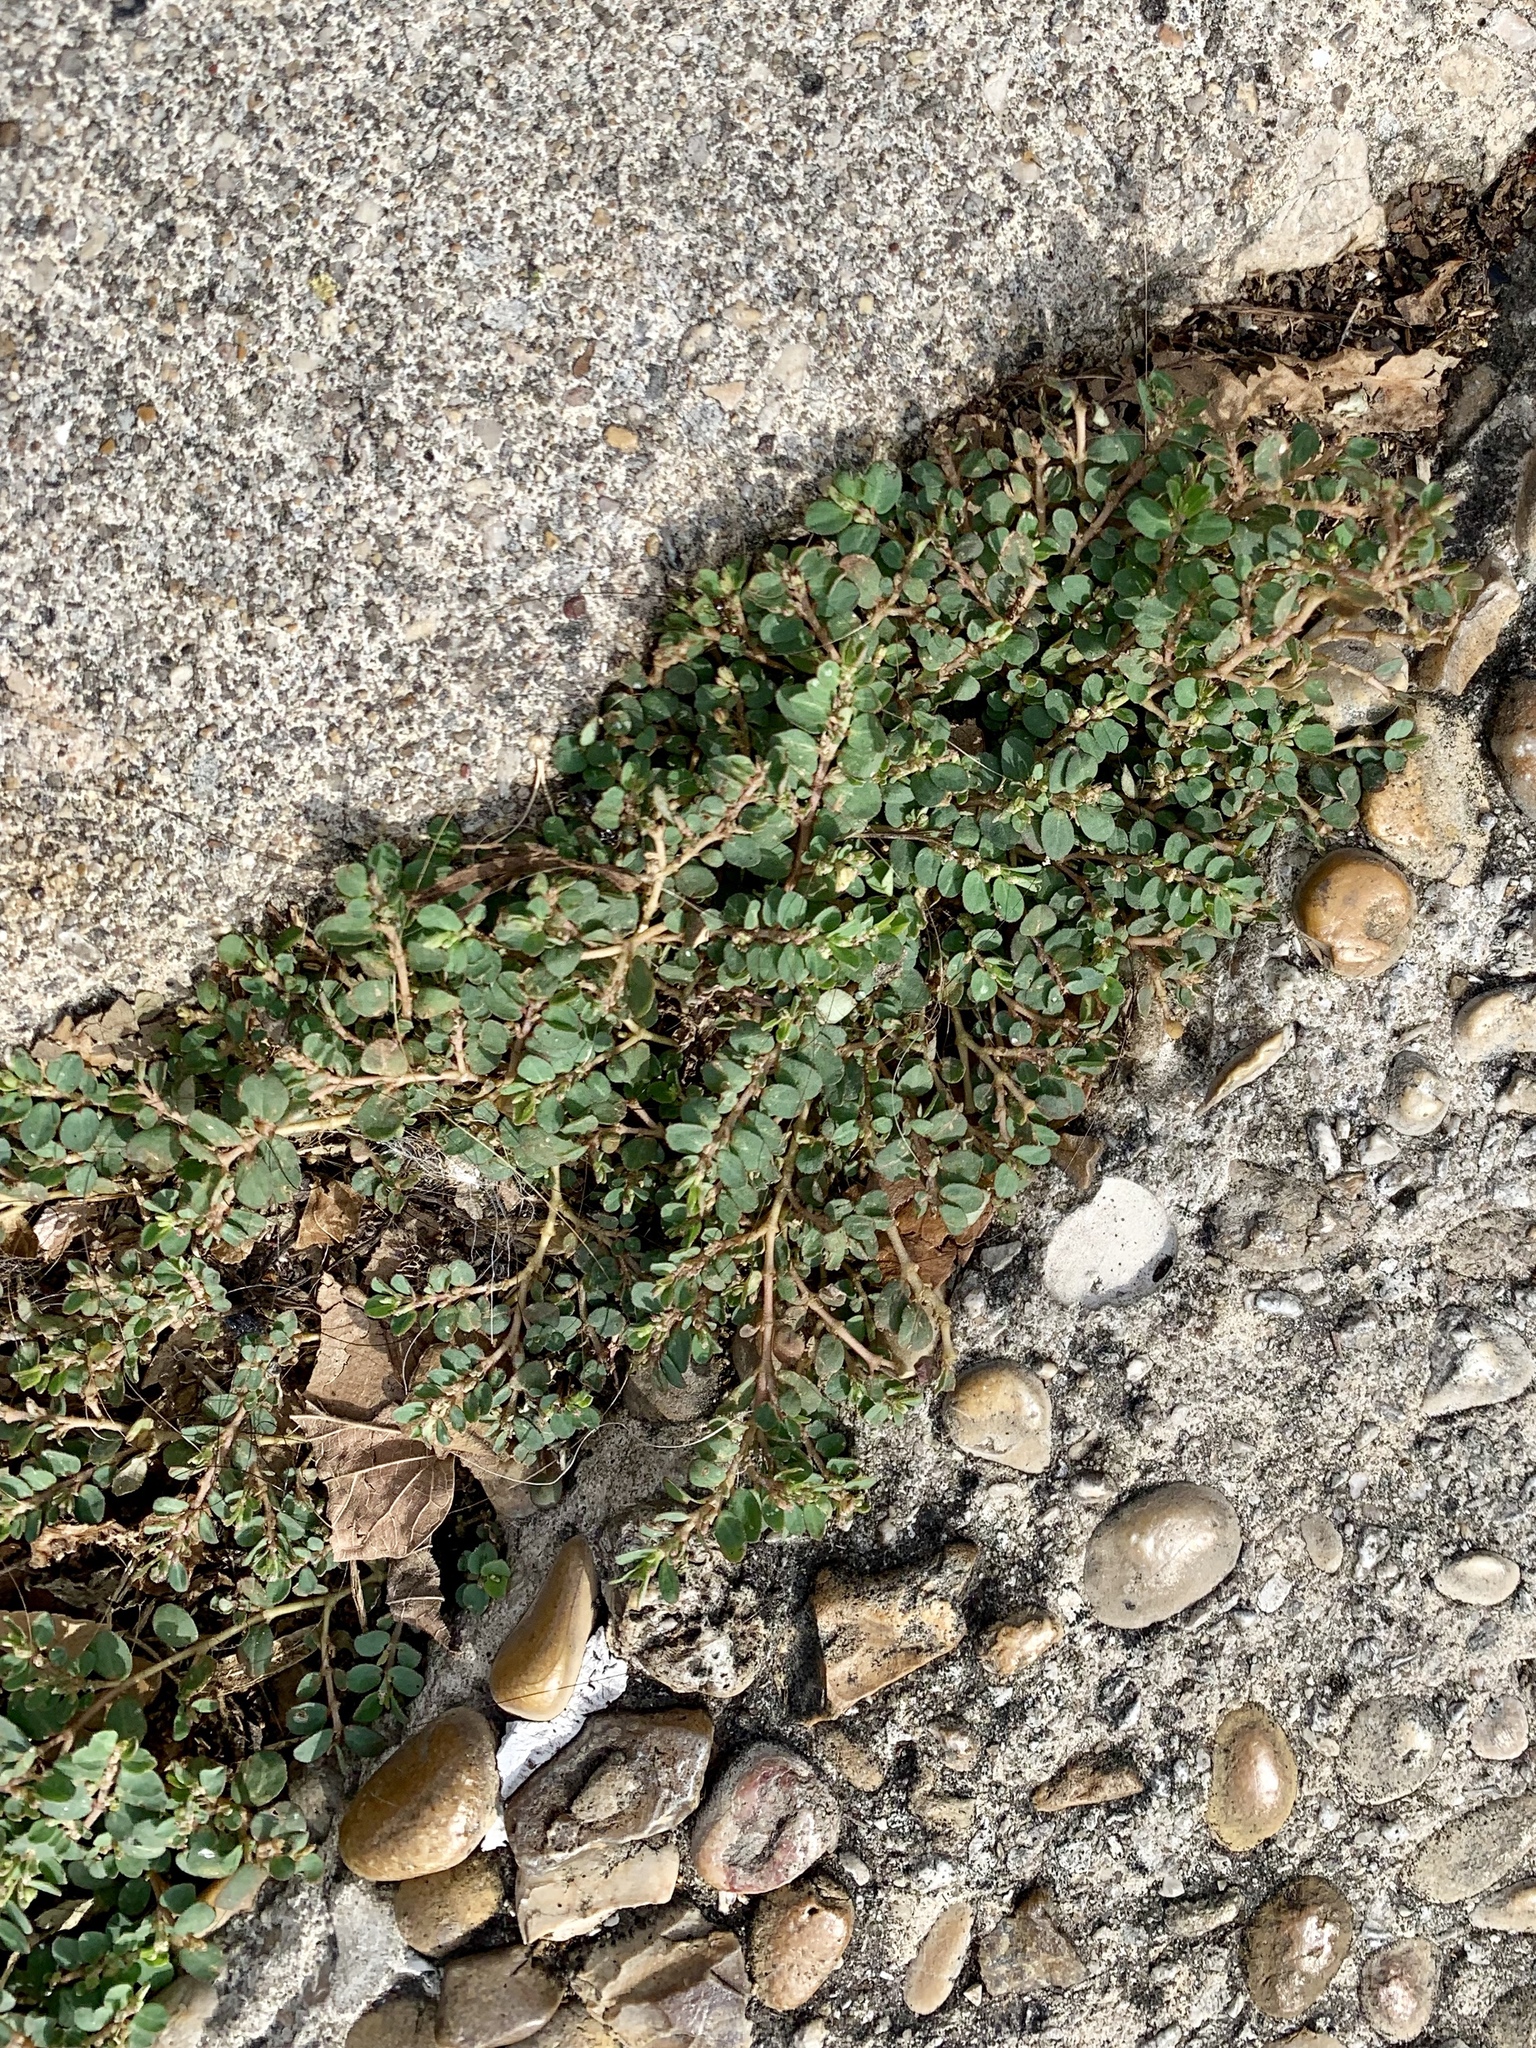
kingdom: Plantae
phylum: Tracheophyta
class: Magnoliopsida
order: Malpighiales
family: Euphorbiaceae
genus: Euphorbia
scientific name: Euphorbia prostrata
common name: Prostrate sandmat
